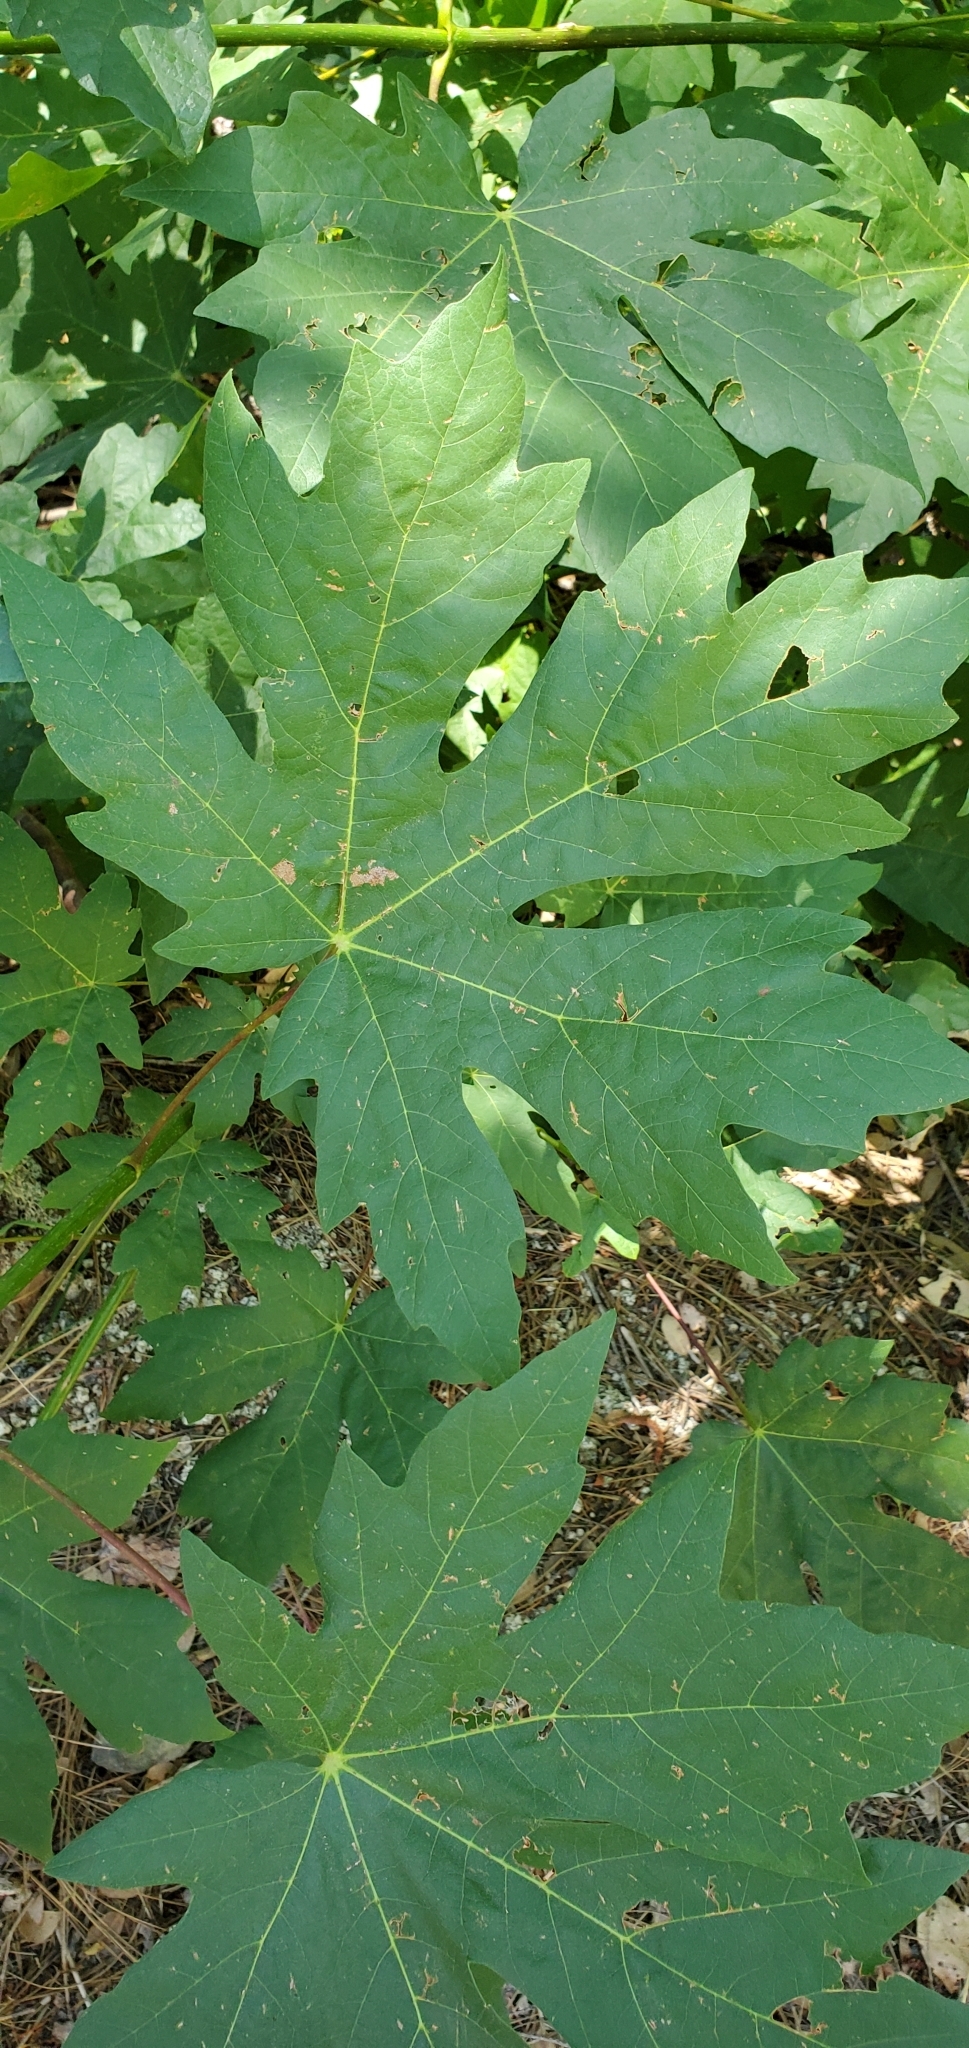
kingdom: Plantae
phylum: Tracheophyta
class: Magnoliopsida
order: Sapindales
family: Sapindaceae
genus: Acer
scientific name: Acer macrophyllum
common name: Oregon maple
